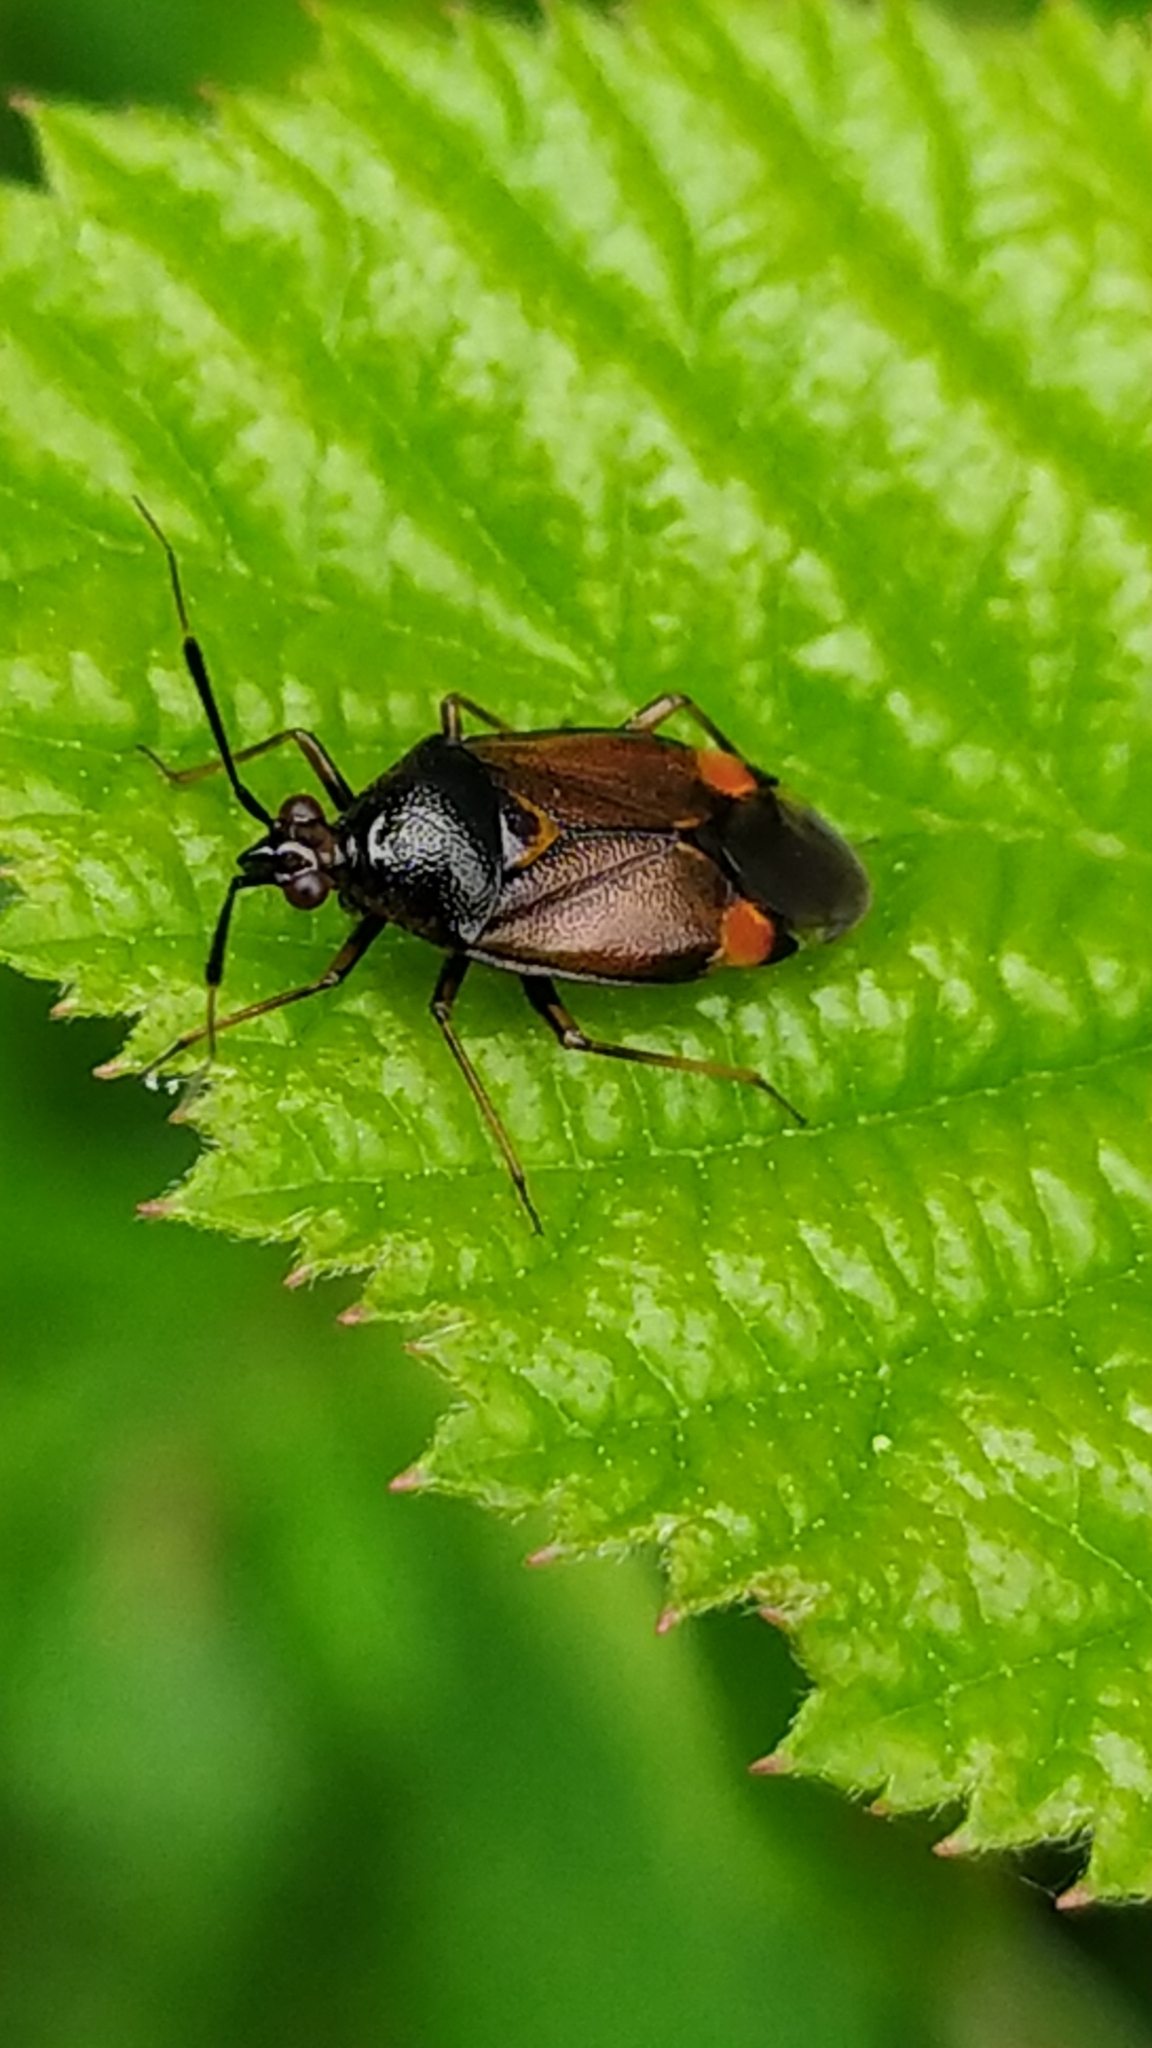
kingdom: Animalia
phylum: Arthropoda
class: Insecta
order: Hemiptera
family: Miridae
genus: Deraeocoris
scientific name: Deraeocoris ruber
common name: Plant bug
